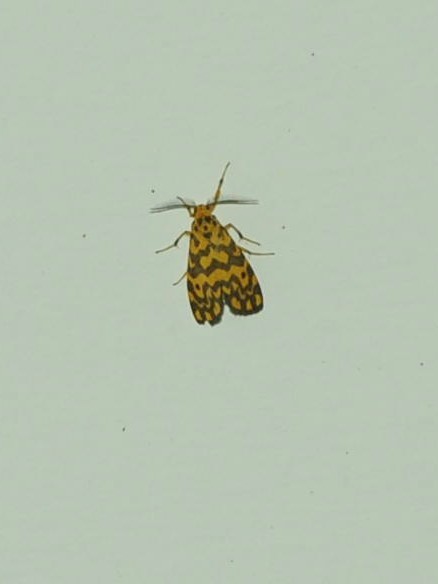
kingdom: Animalia
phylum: Arthropoda
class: Insecta
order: Lepidoptera
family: Erebidae
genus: Nepita
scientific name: Nepita conferta
